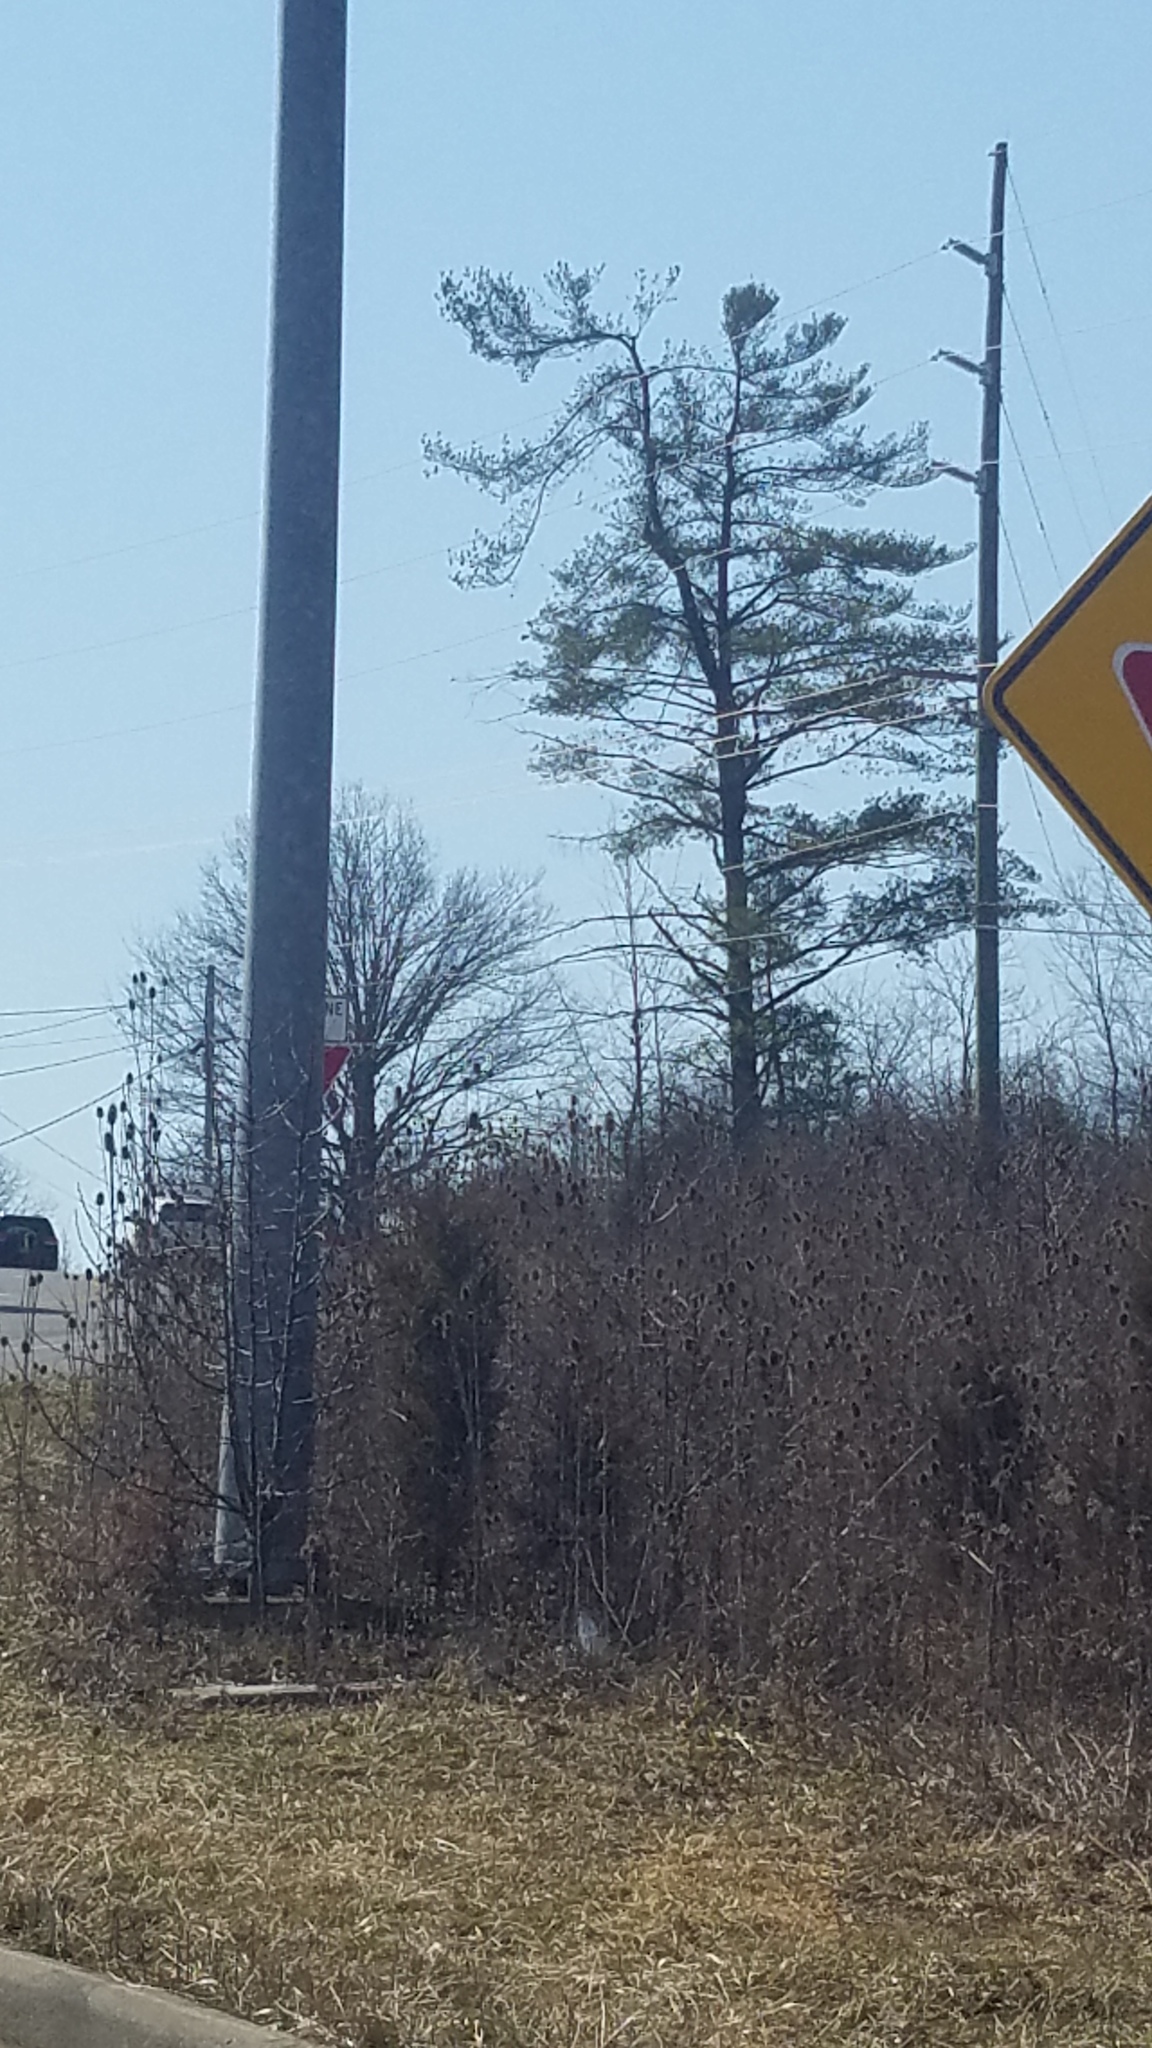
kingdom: Plantae
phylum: Tracheophyta
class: Pinopsida
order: Pinales
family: Pinaceae
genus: Pinus
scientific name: Pinus strobus
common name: Weymouth pine
